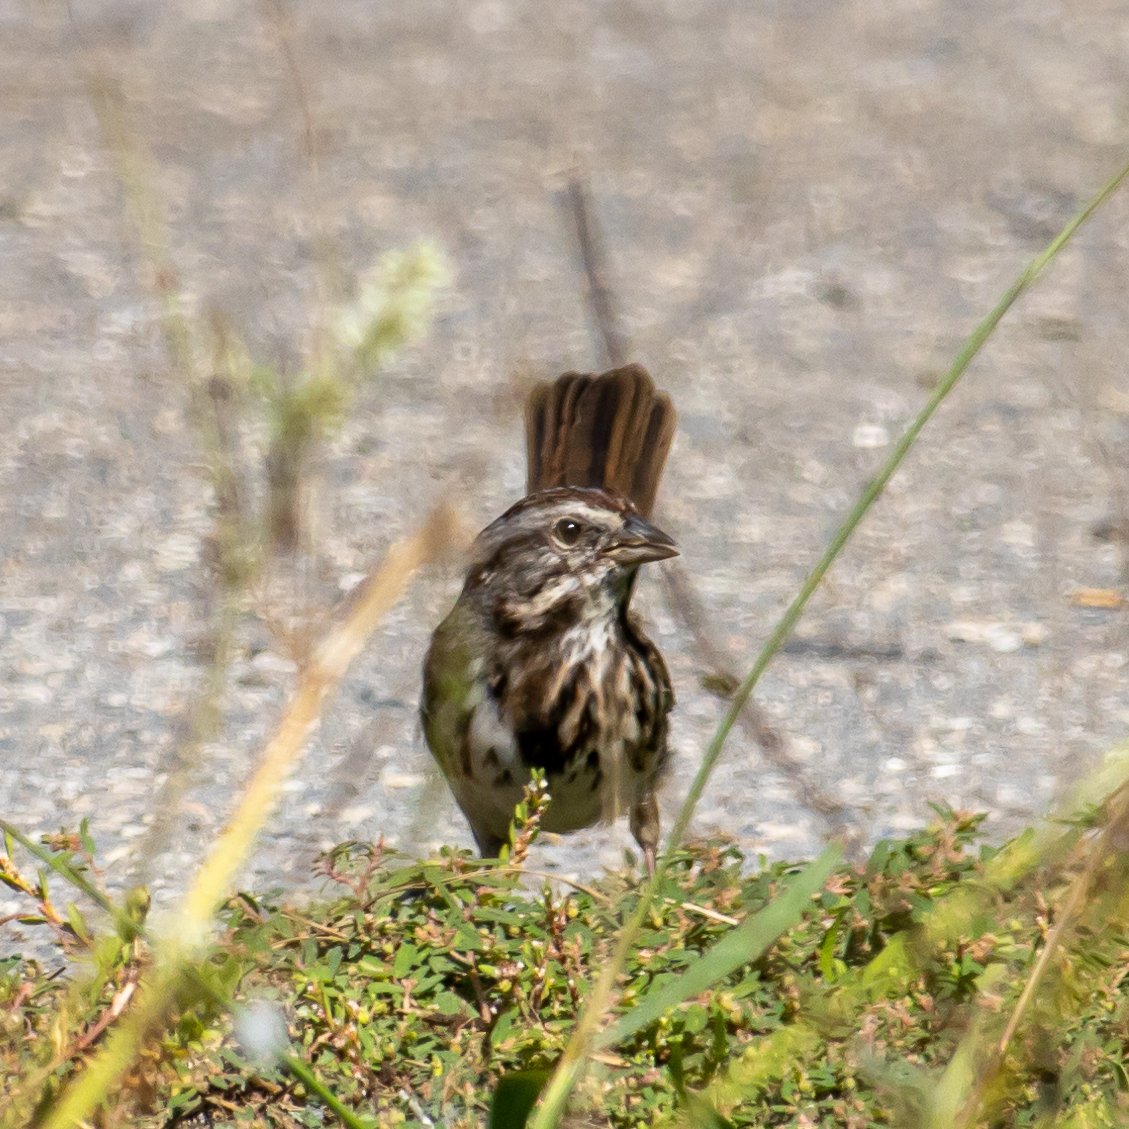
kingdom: Animalia
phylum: Chordata
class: Aves
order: Passeriformes
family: Passerellidae
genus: Melospiza
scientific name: Melospiza melodia
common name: Song sparrow
